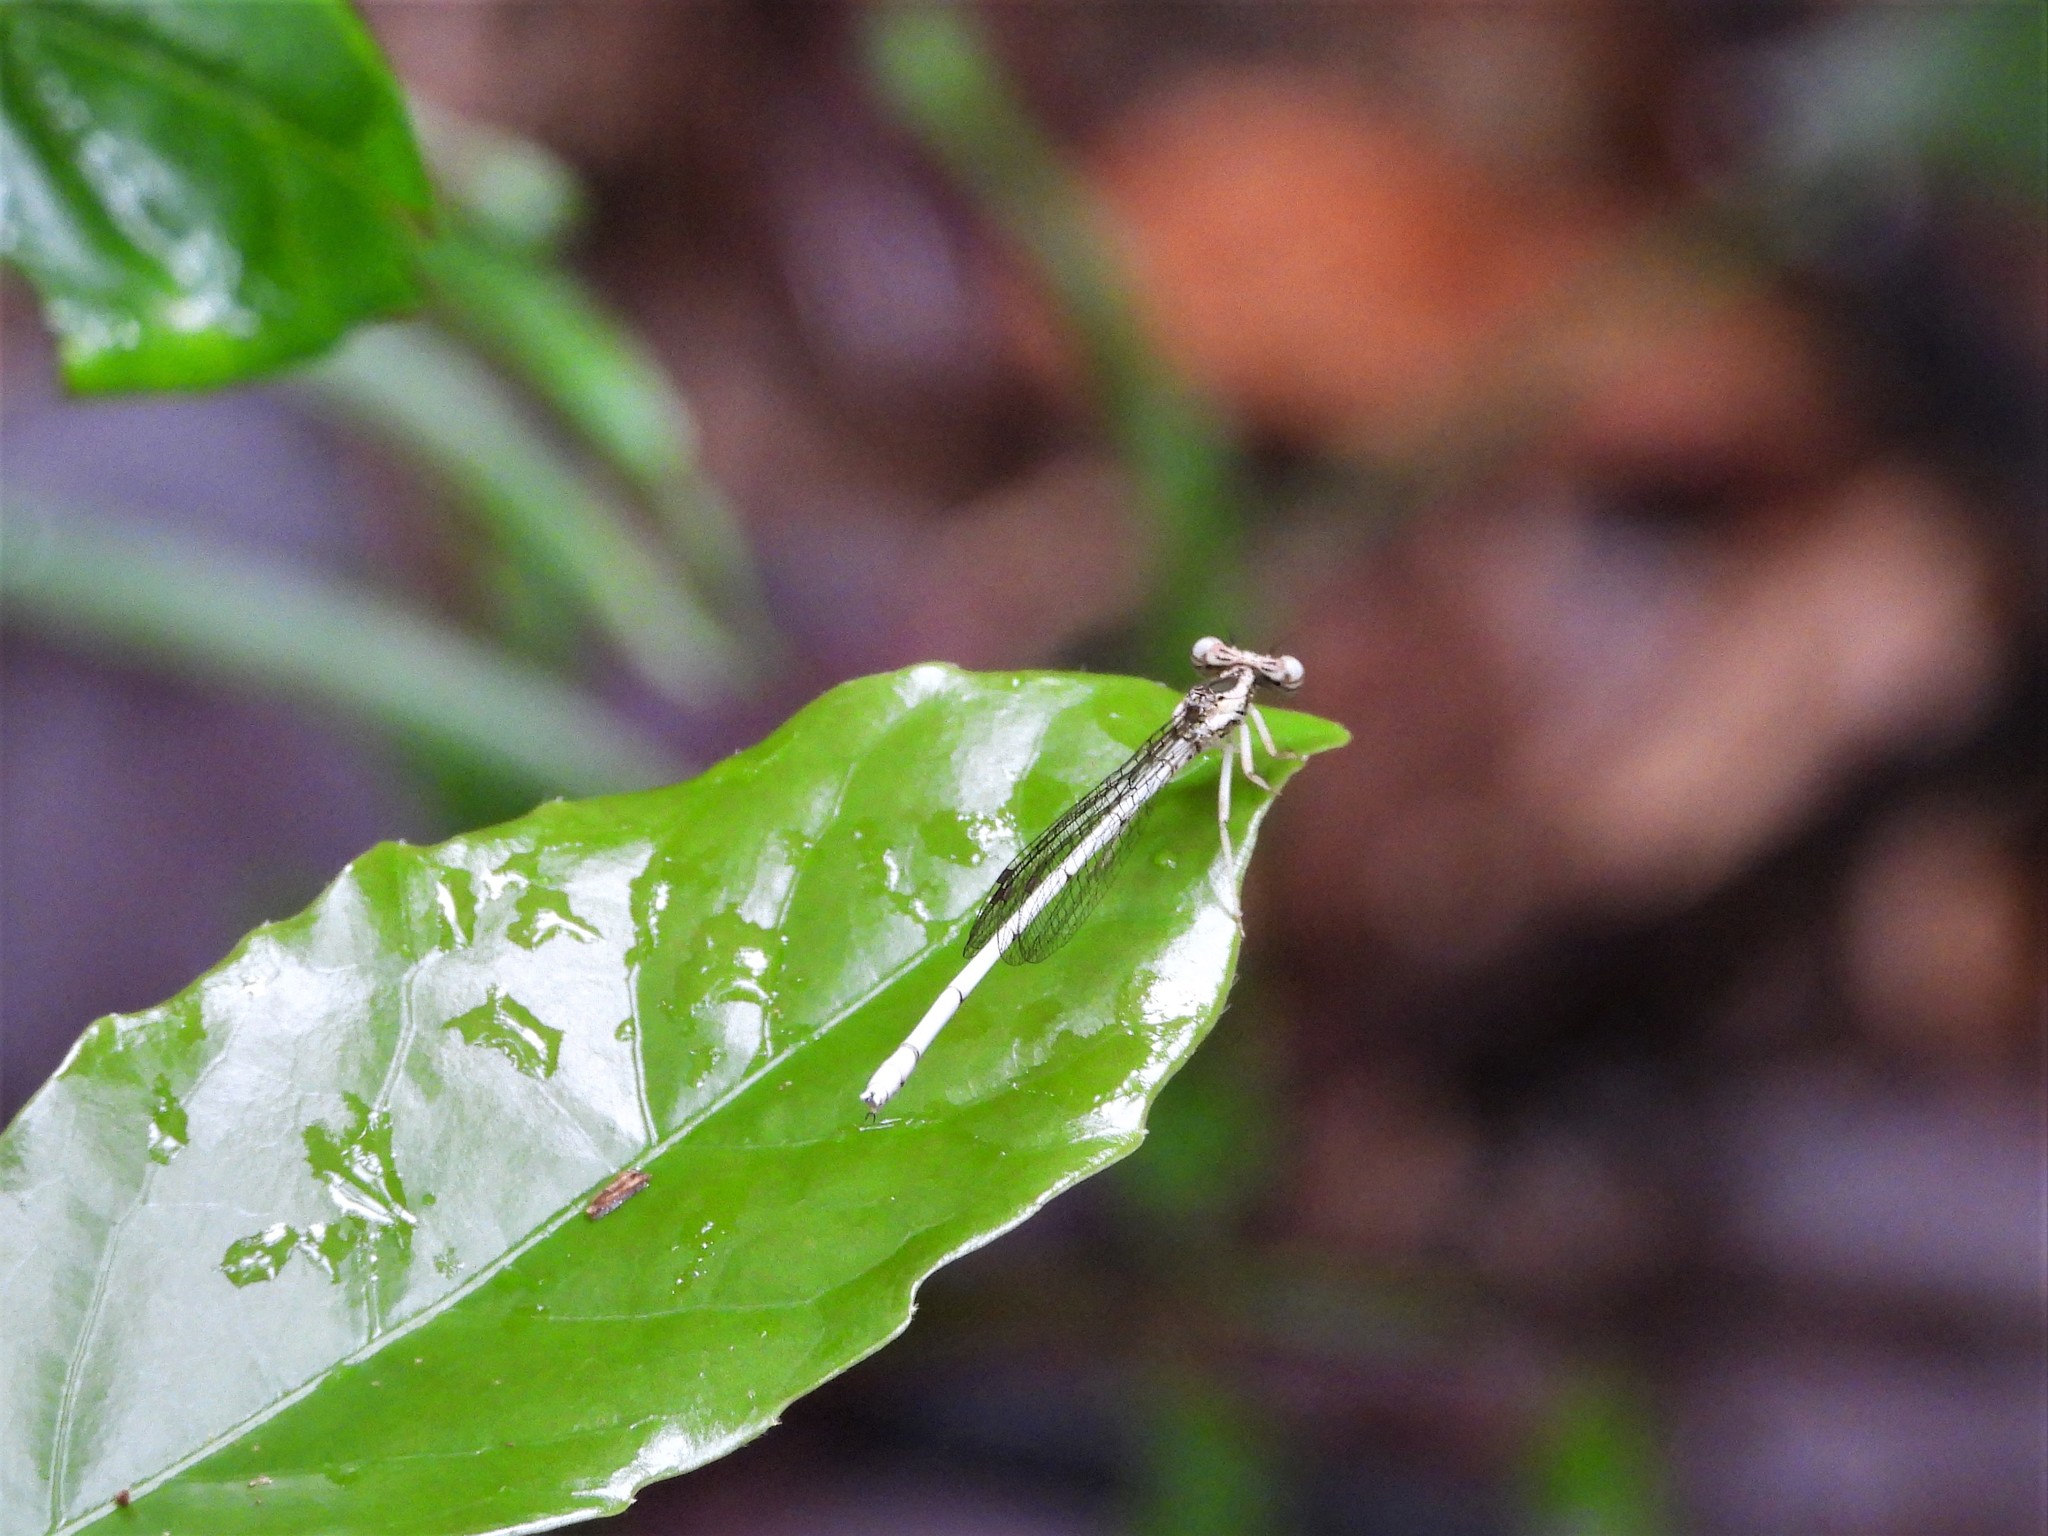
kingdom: Animalia
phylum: Arthropoda
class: Insecta
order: Odonata
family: Platycnemididae
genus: Copera
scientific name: Copera marginipes
